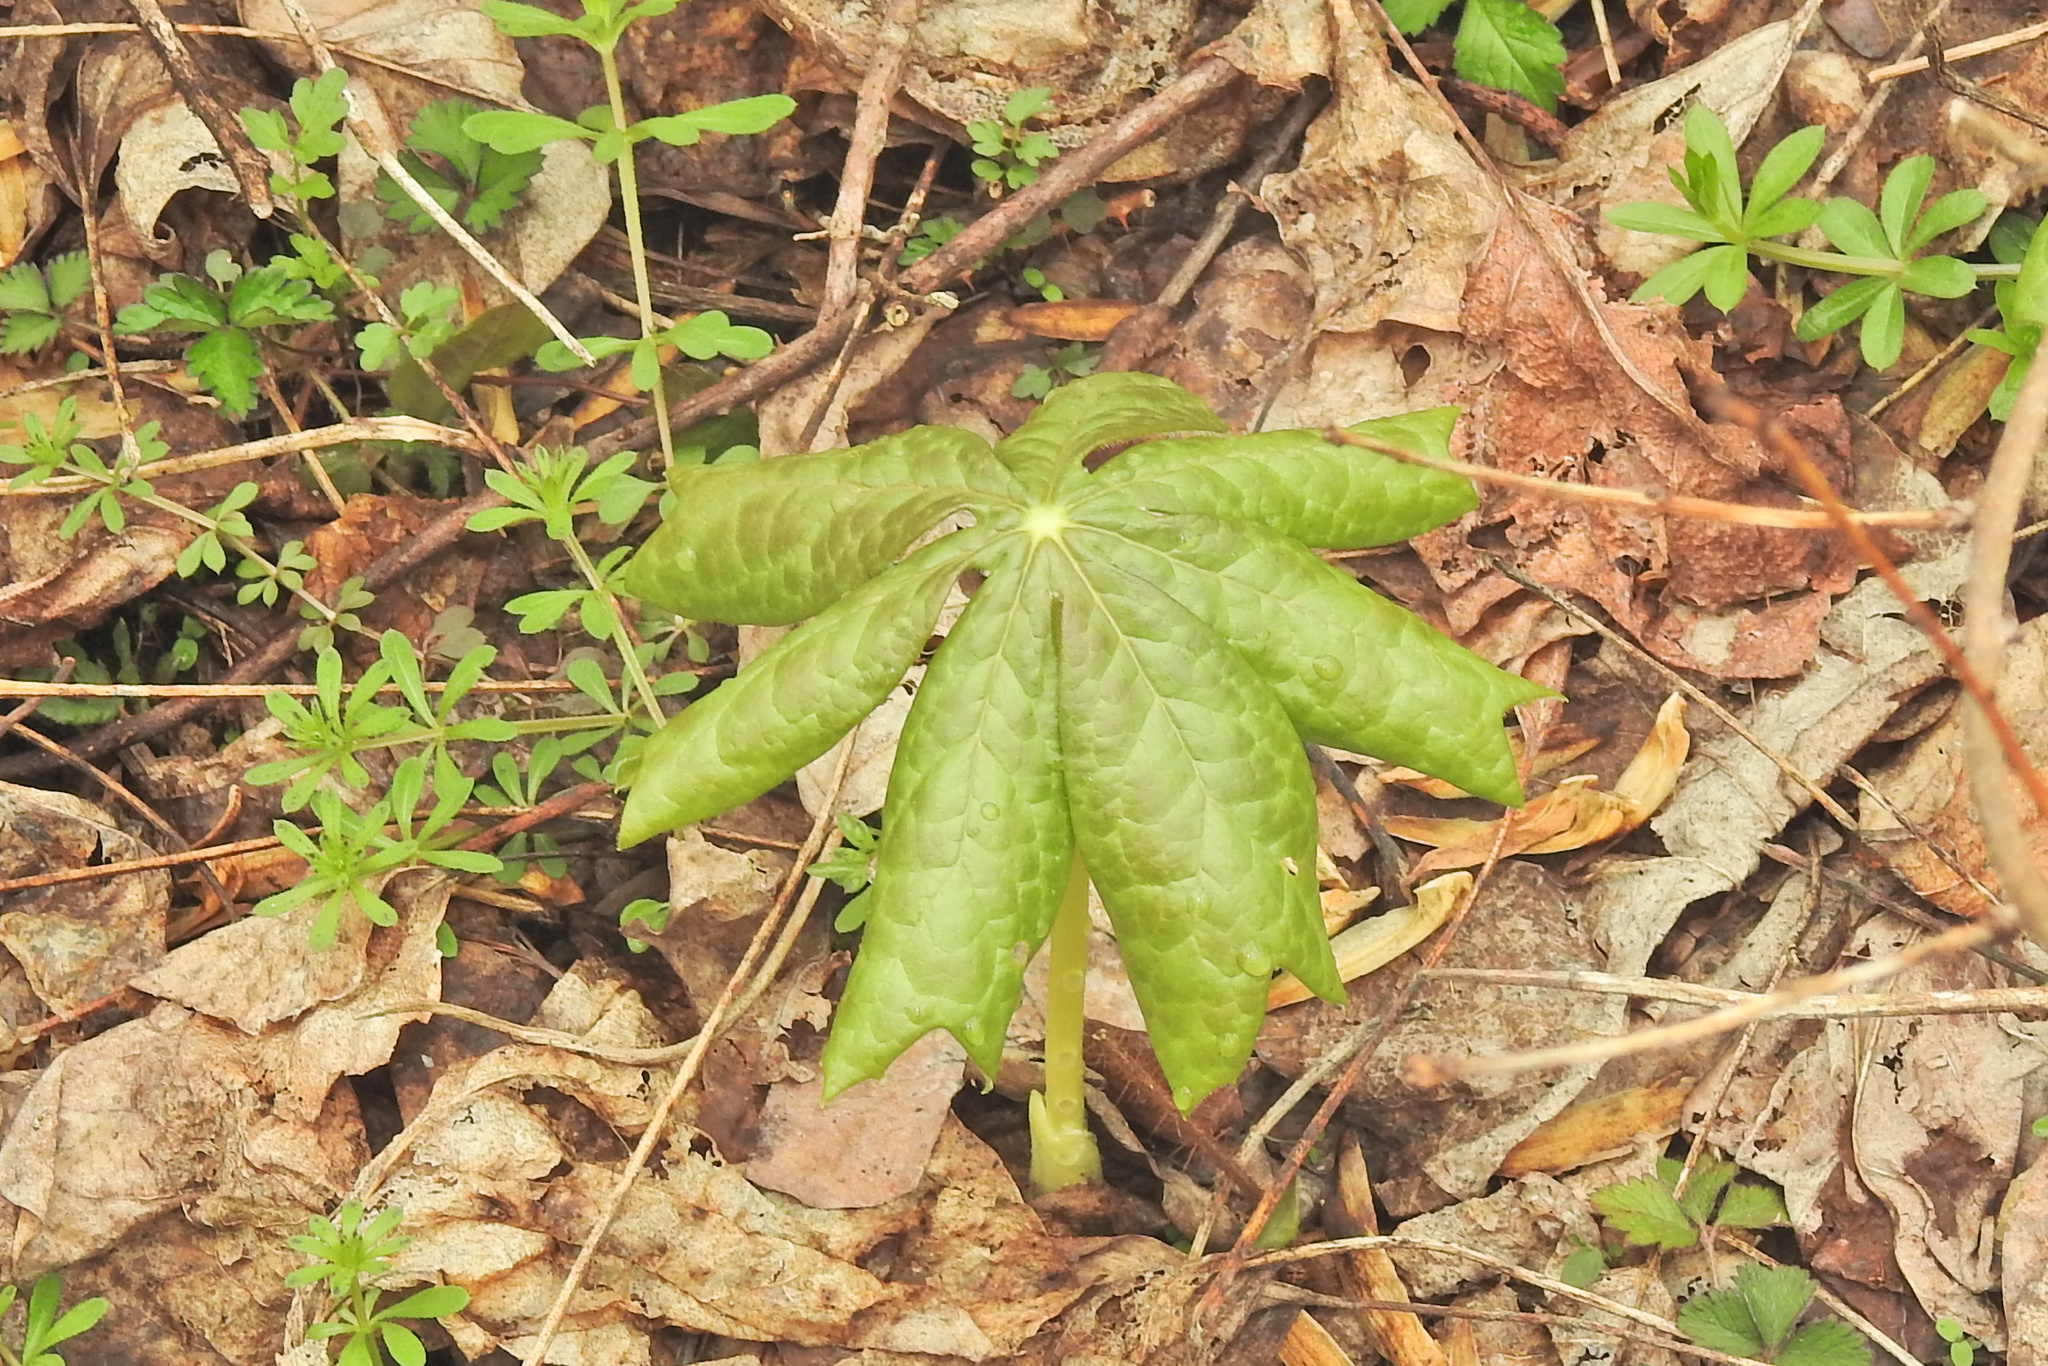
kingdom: Plantae
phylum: Tracheophyta
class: Magnoliopsida
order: Ranunculales
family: Berberidaceae
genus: Podophyllum
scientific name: Podophyllum peltatum
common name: Wild mandrake
